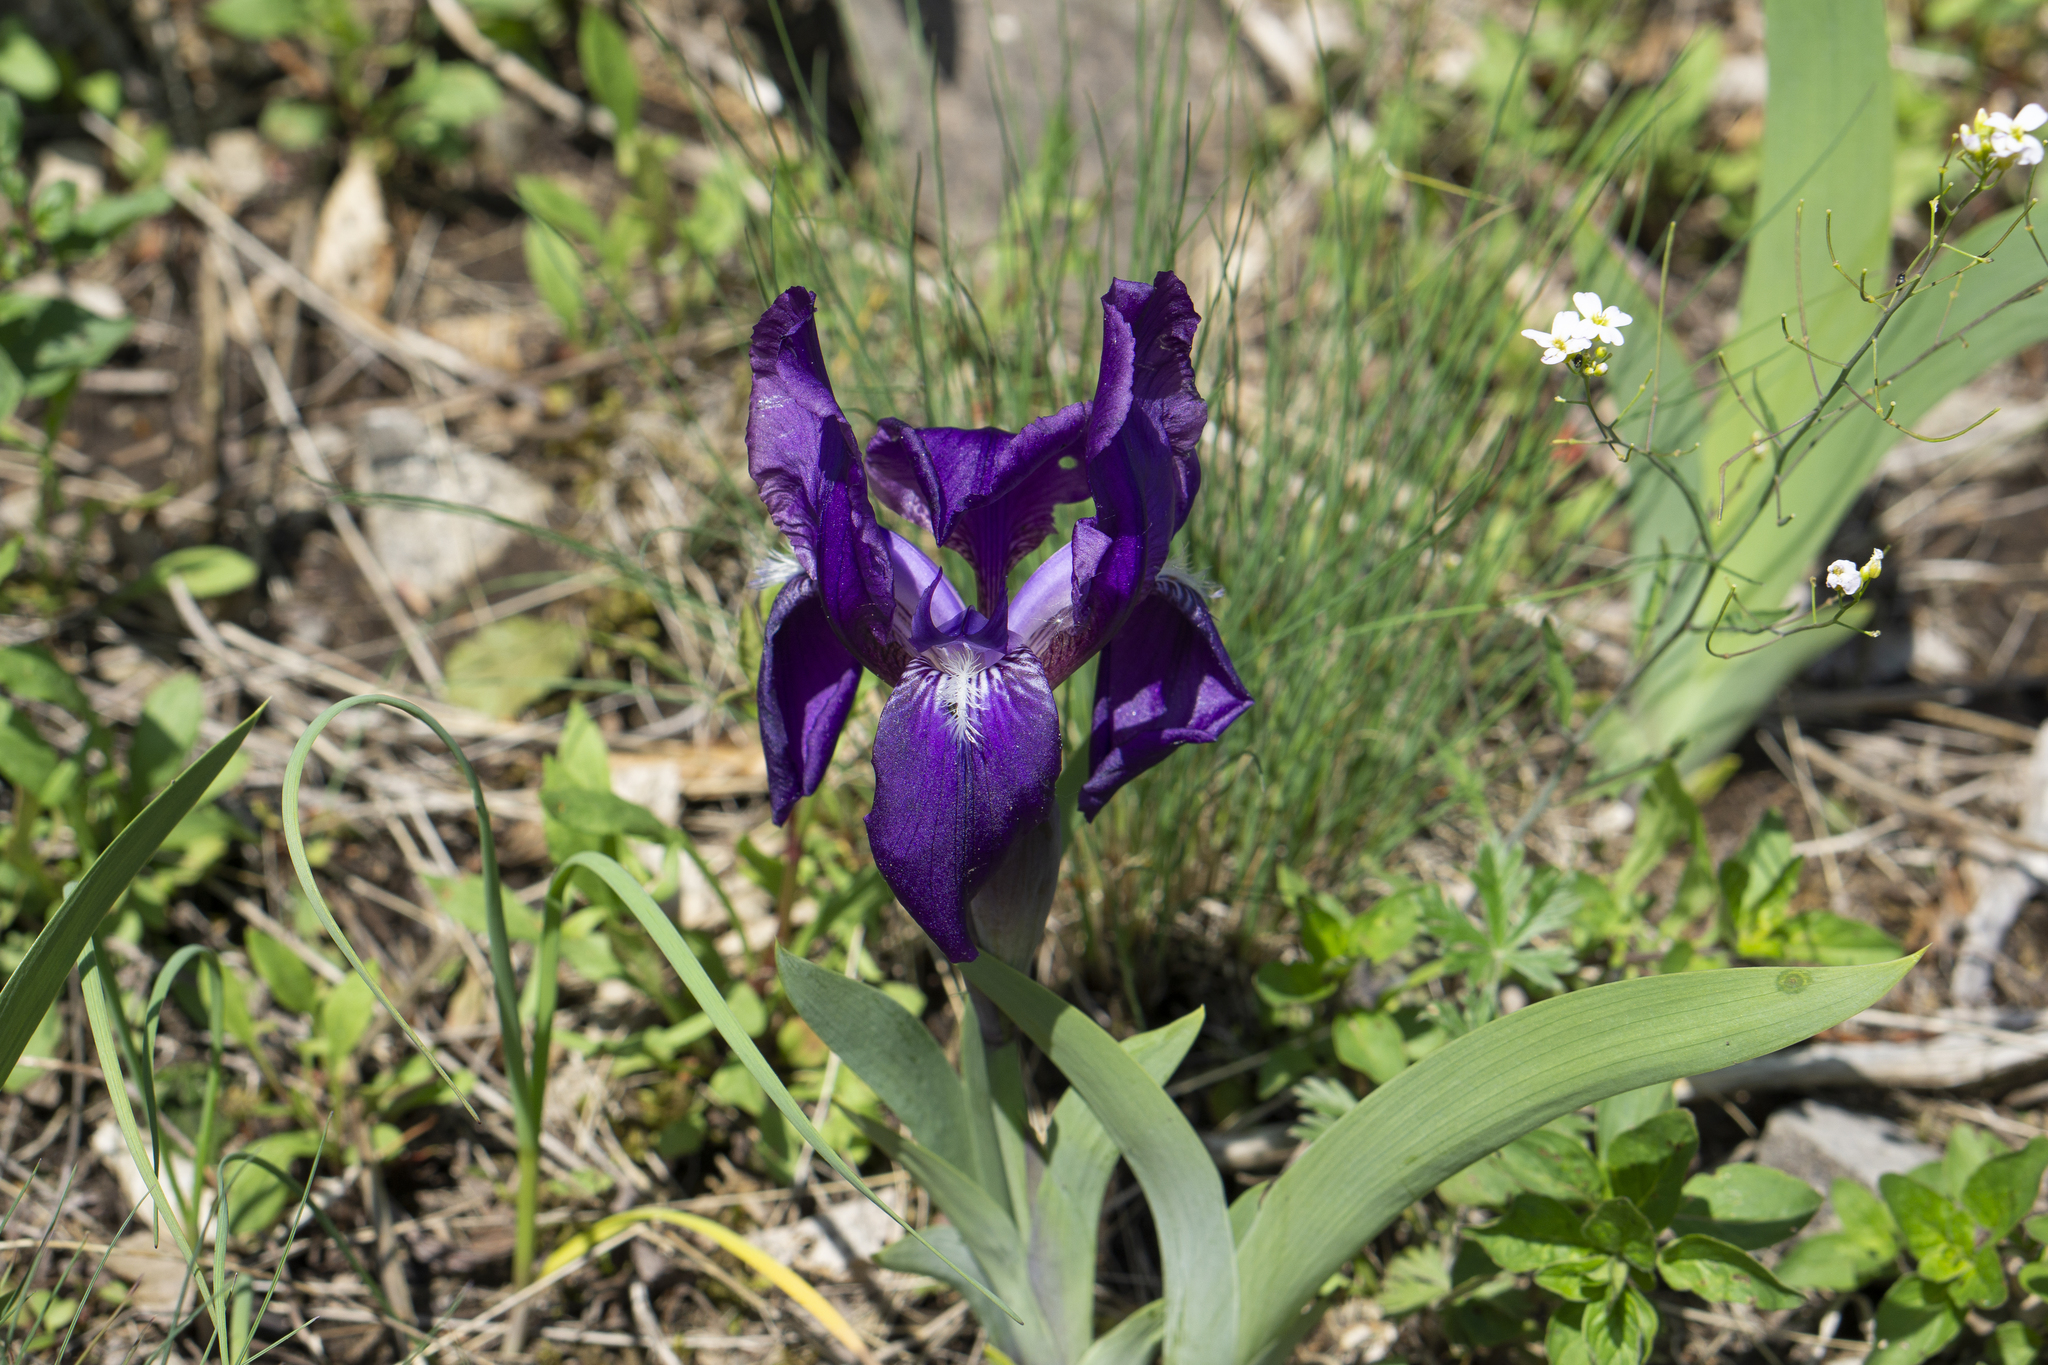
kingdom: Plantae
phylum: Tracheophyta
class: Liliopsida
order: Asparagales
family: Iridaceae
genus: Iris
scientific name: Iris aphylla
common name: Stool iris
